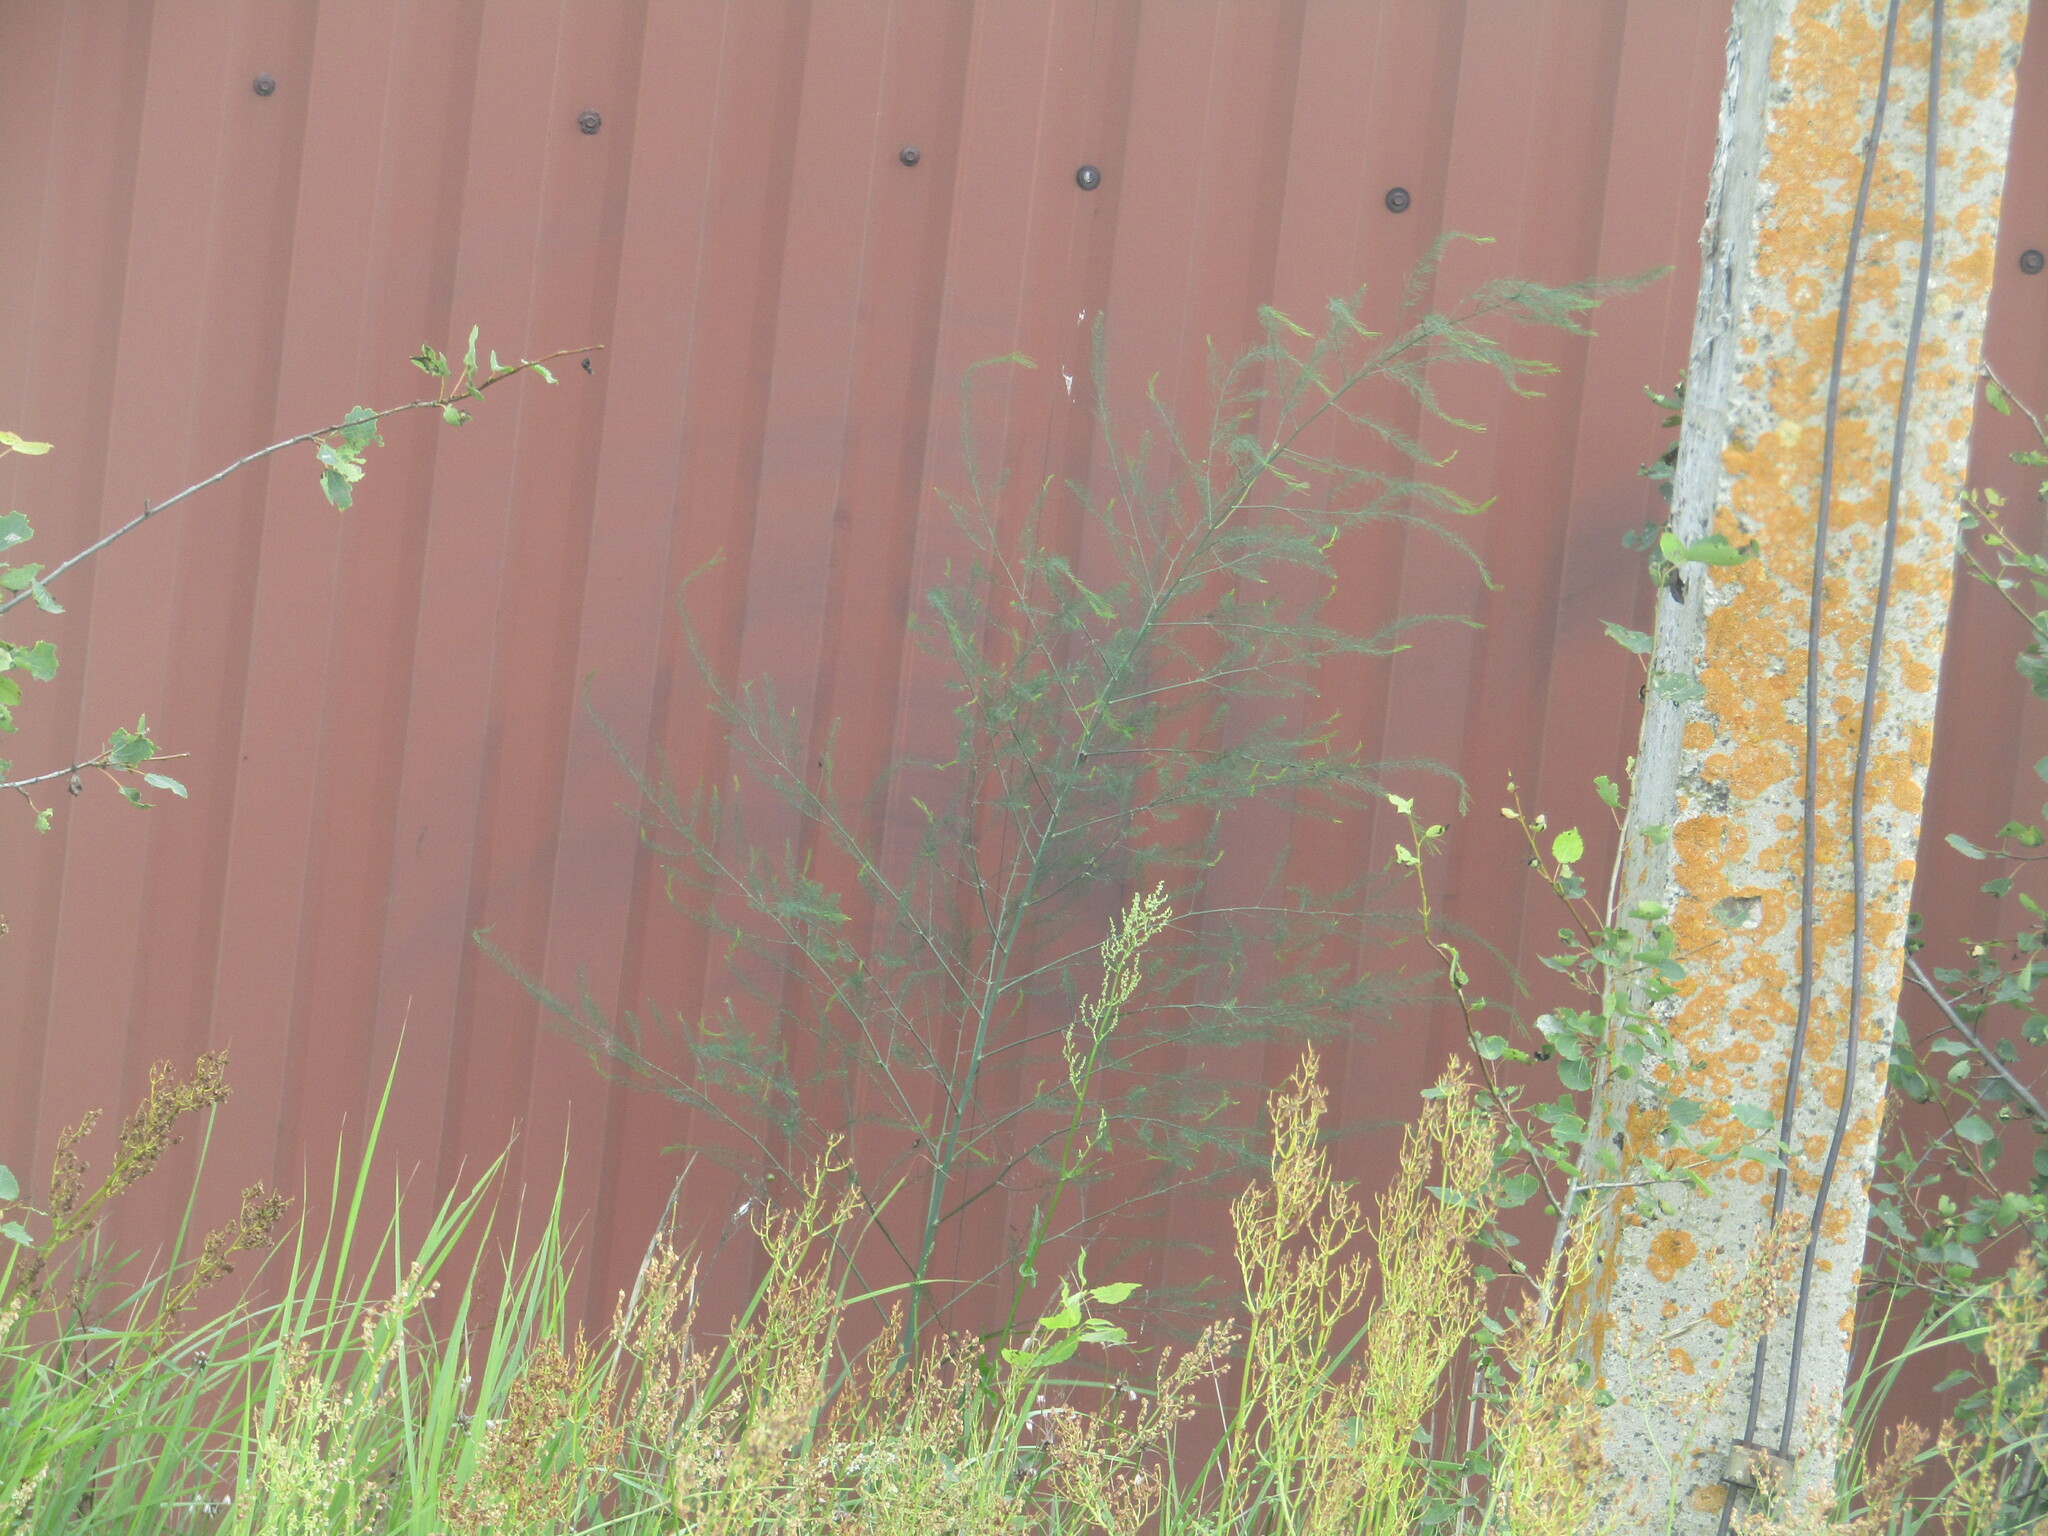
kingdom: Plantae
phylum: Tracheophyta
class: Liliopsida
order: Asparagales
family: Asparagaceae
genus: Asparagus
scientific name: Asparagus officinalis
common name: Garden asparagus
